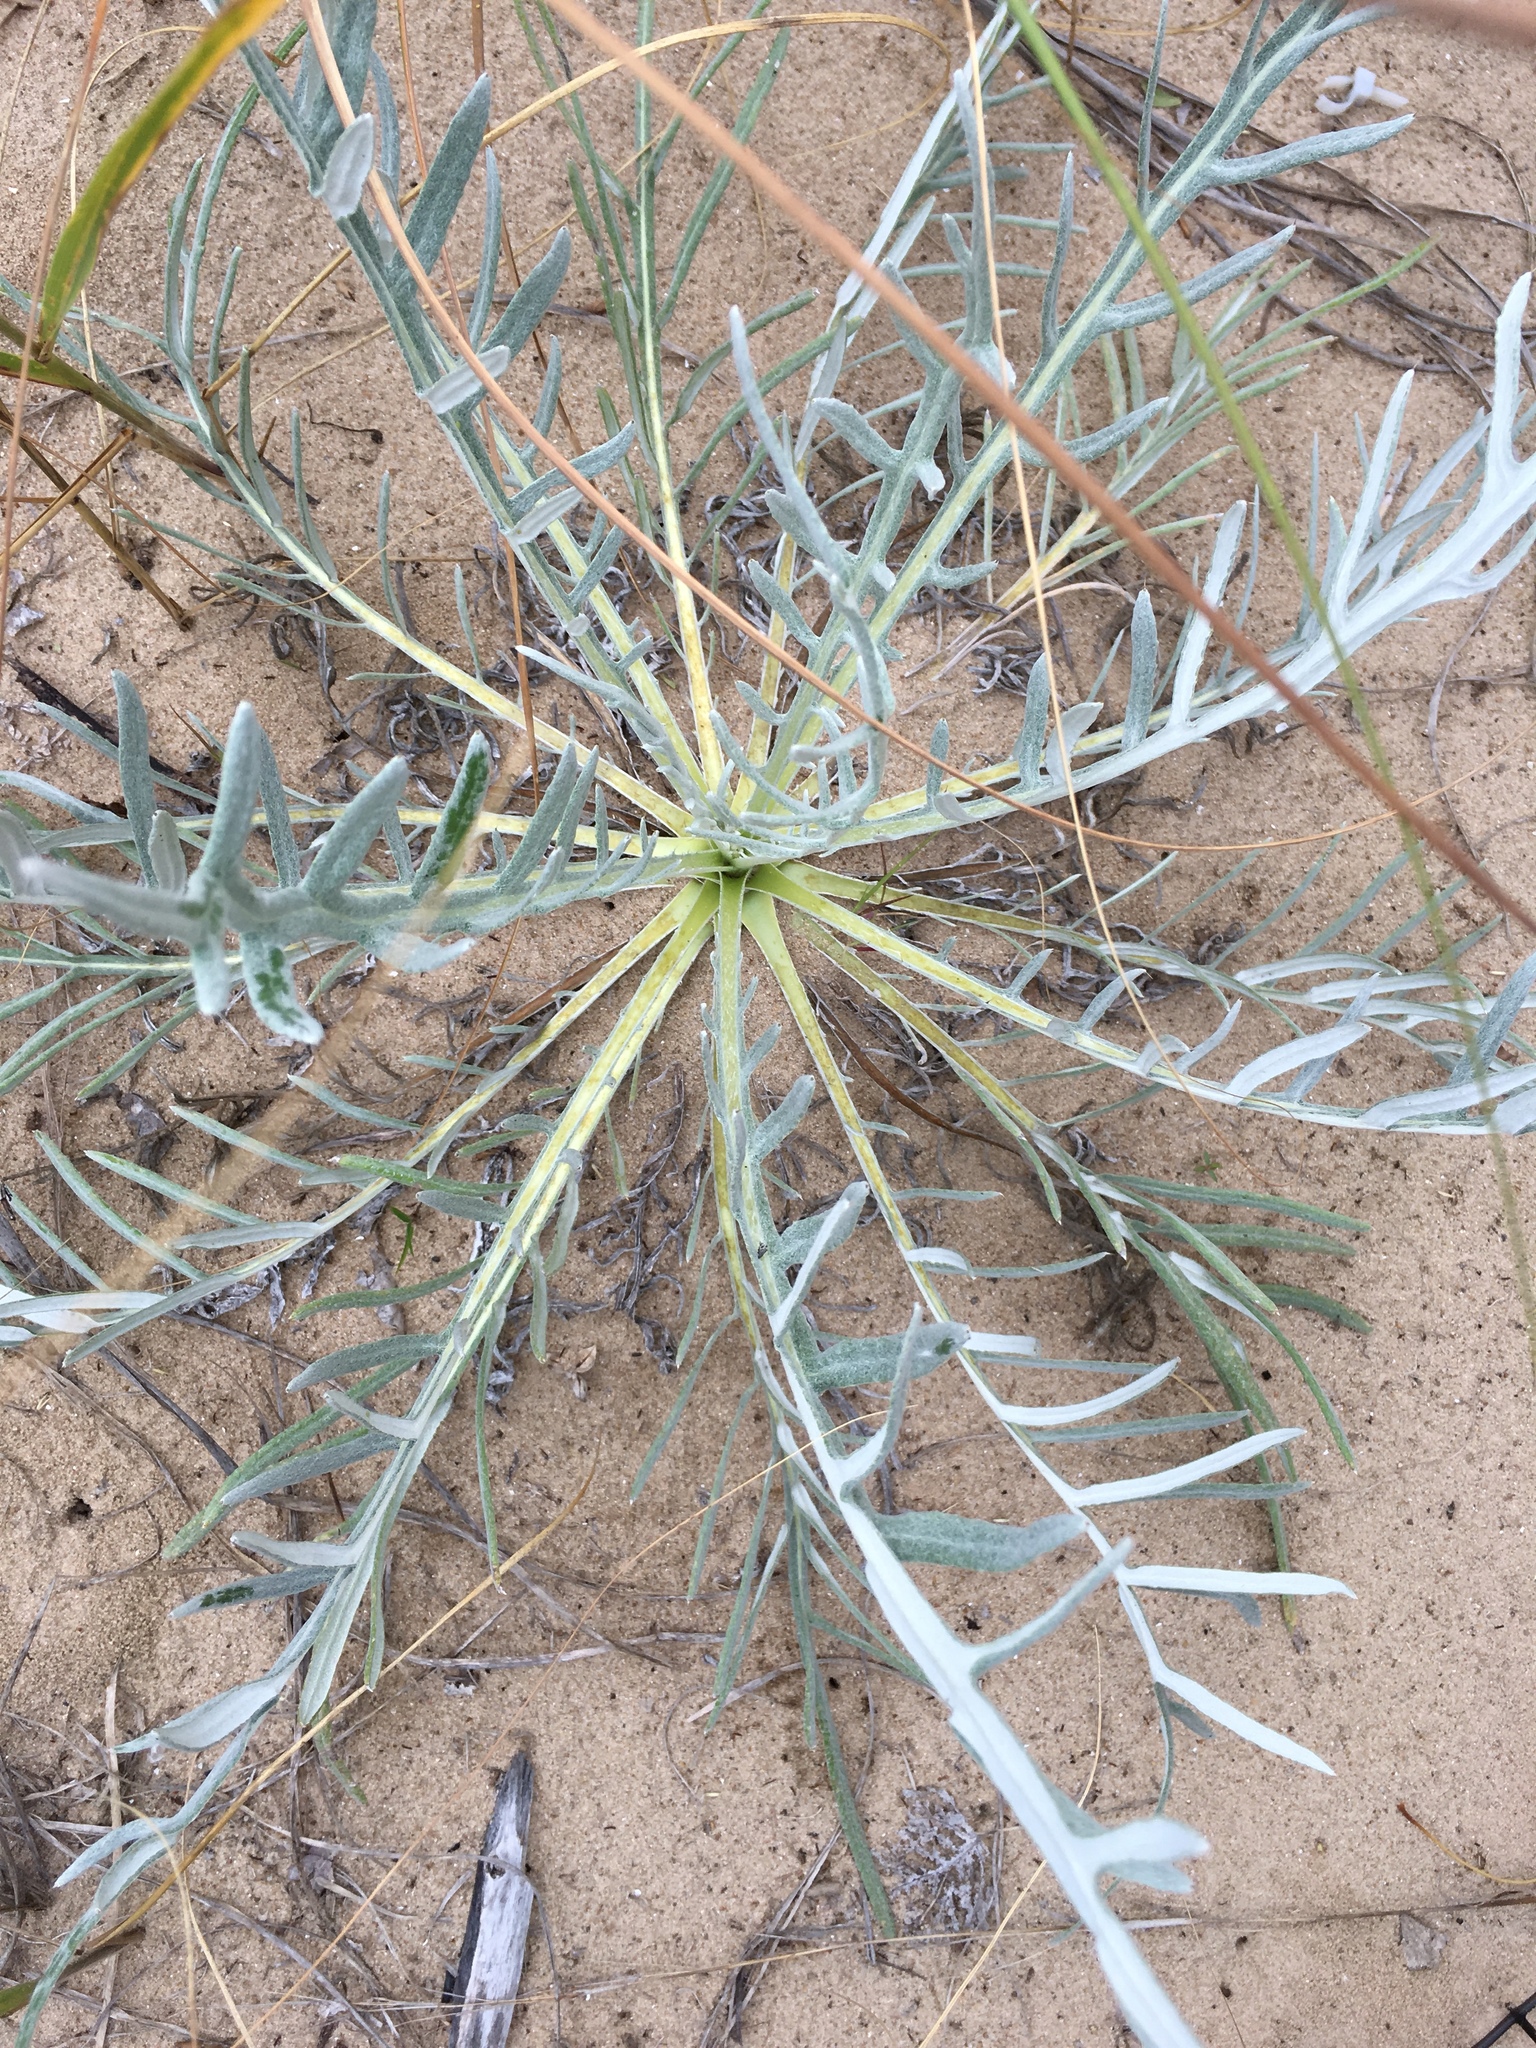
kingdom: Plantae
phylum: Tracheophyta
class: Magnoliopsida
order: Asterales
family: Asteraceae
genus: Cirsium
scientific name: Cirsium pitcheri
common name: Dune thistle
